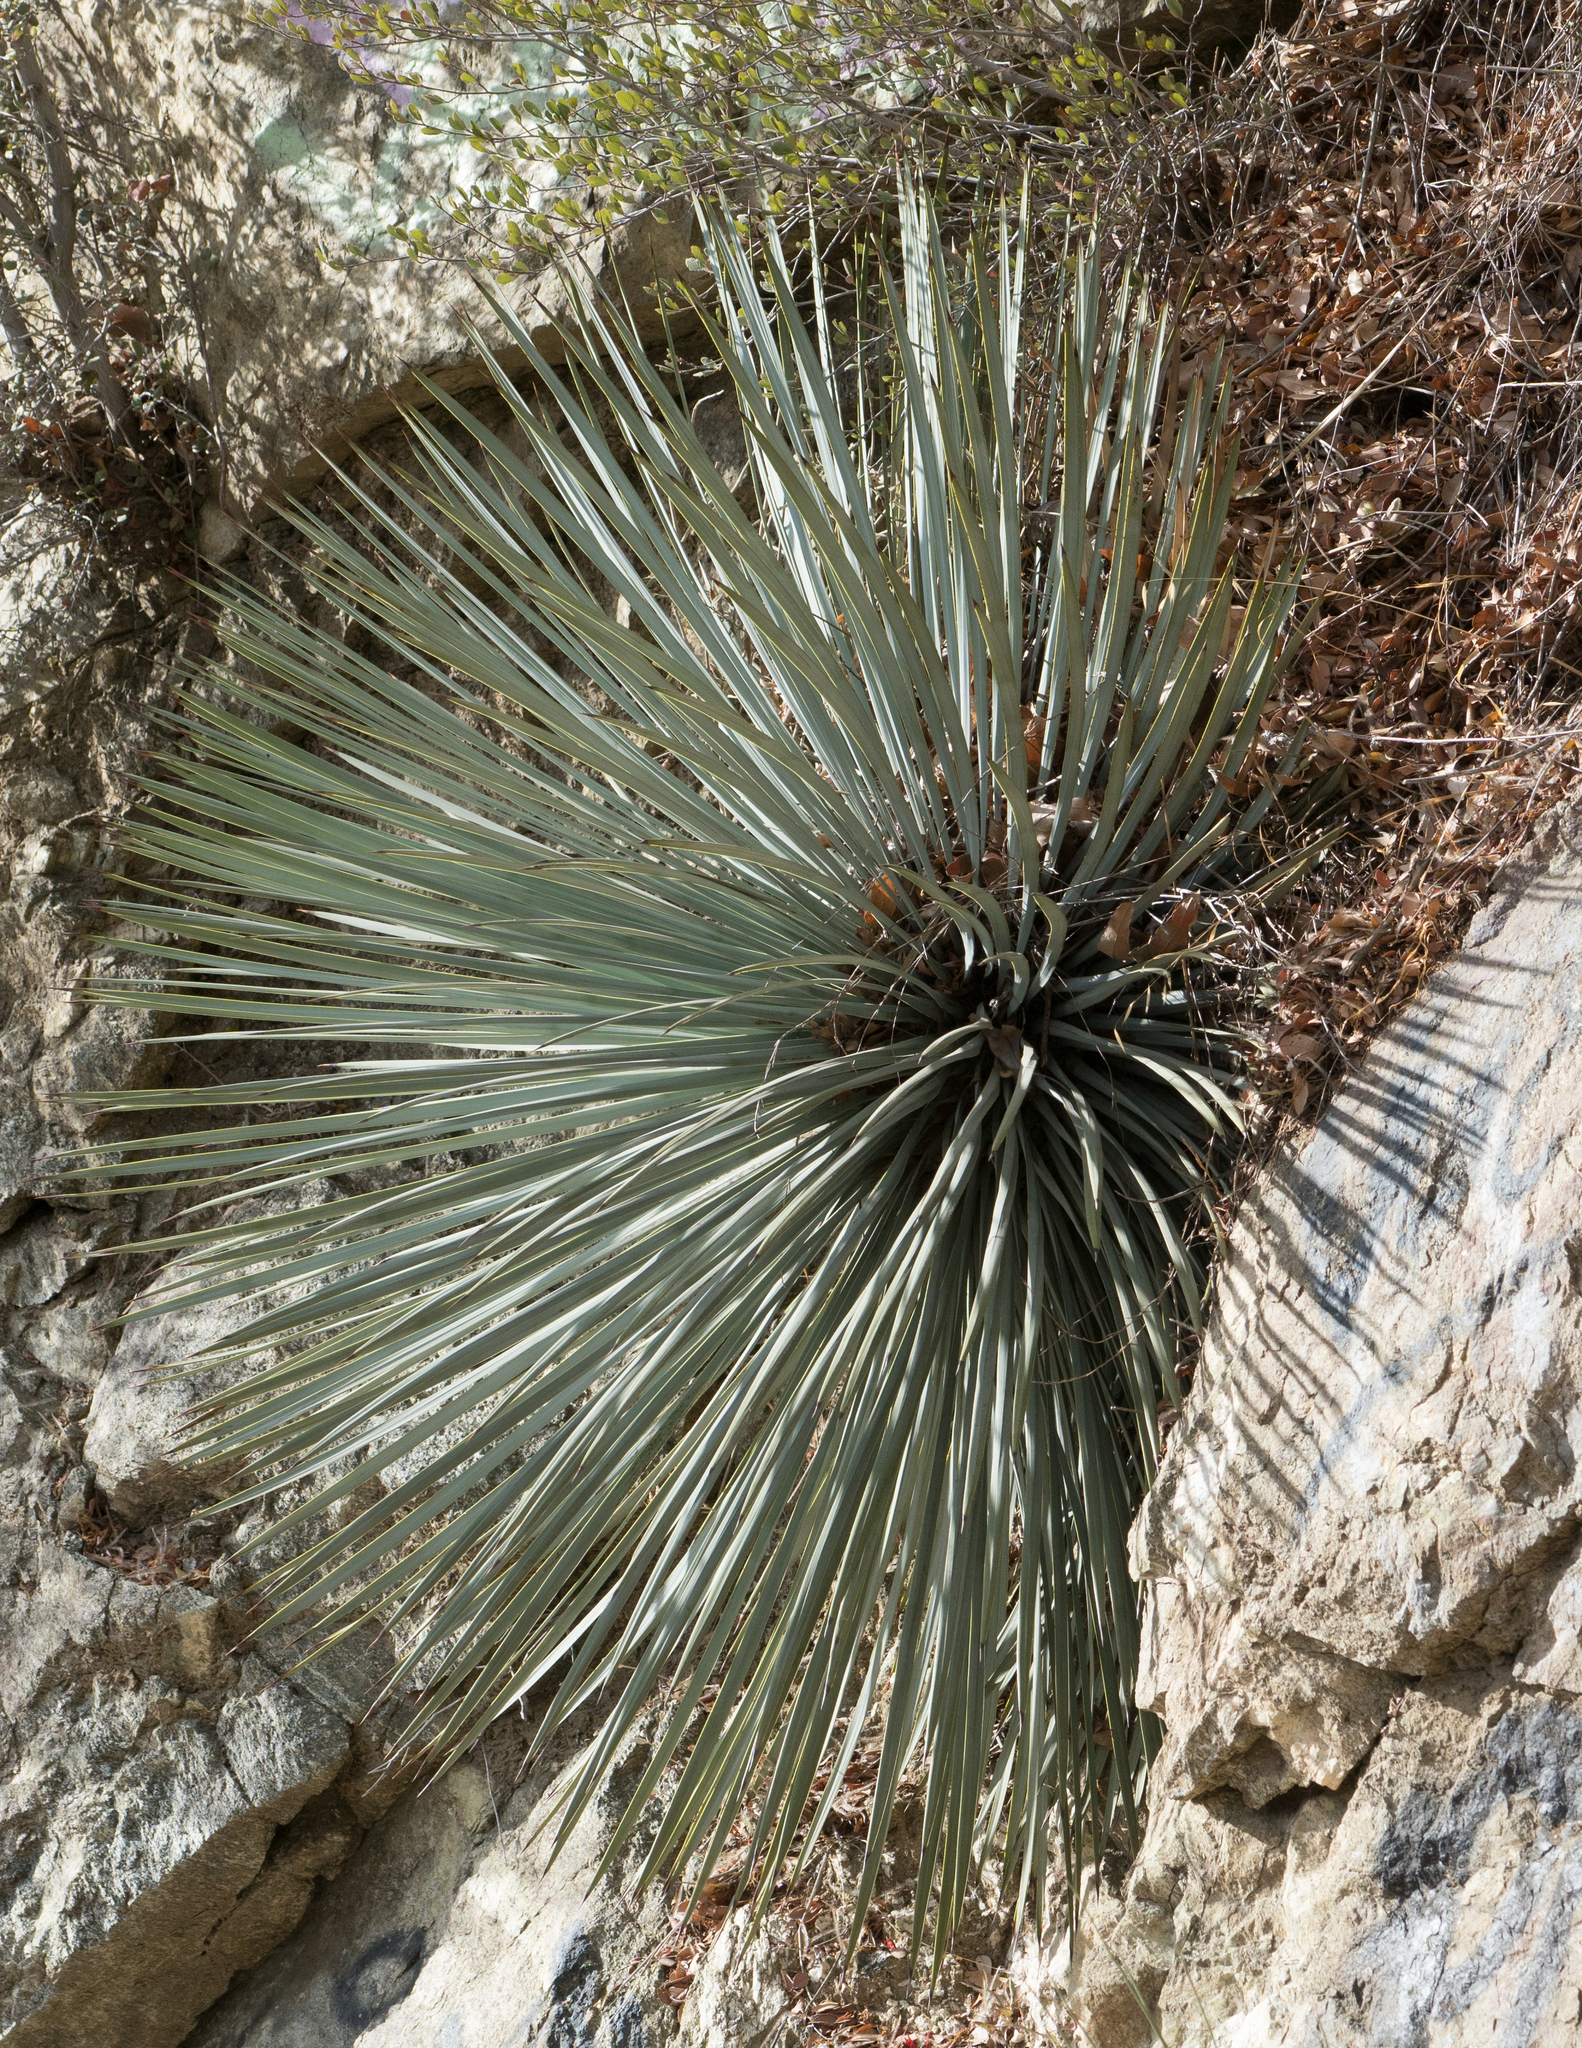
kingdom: Plantae
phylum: Tracheophyta
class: Liliopsida
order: Asparagales
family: Asparagaceae
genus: Hesperoyucca
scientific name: Hesperoyucca whipplei
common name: Our lord's-candle
